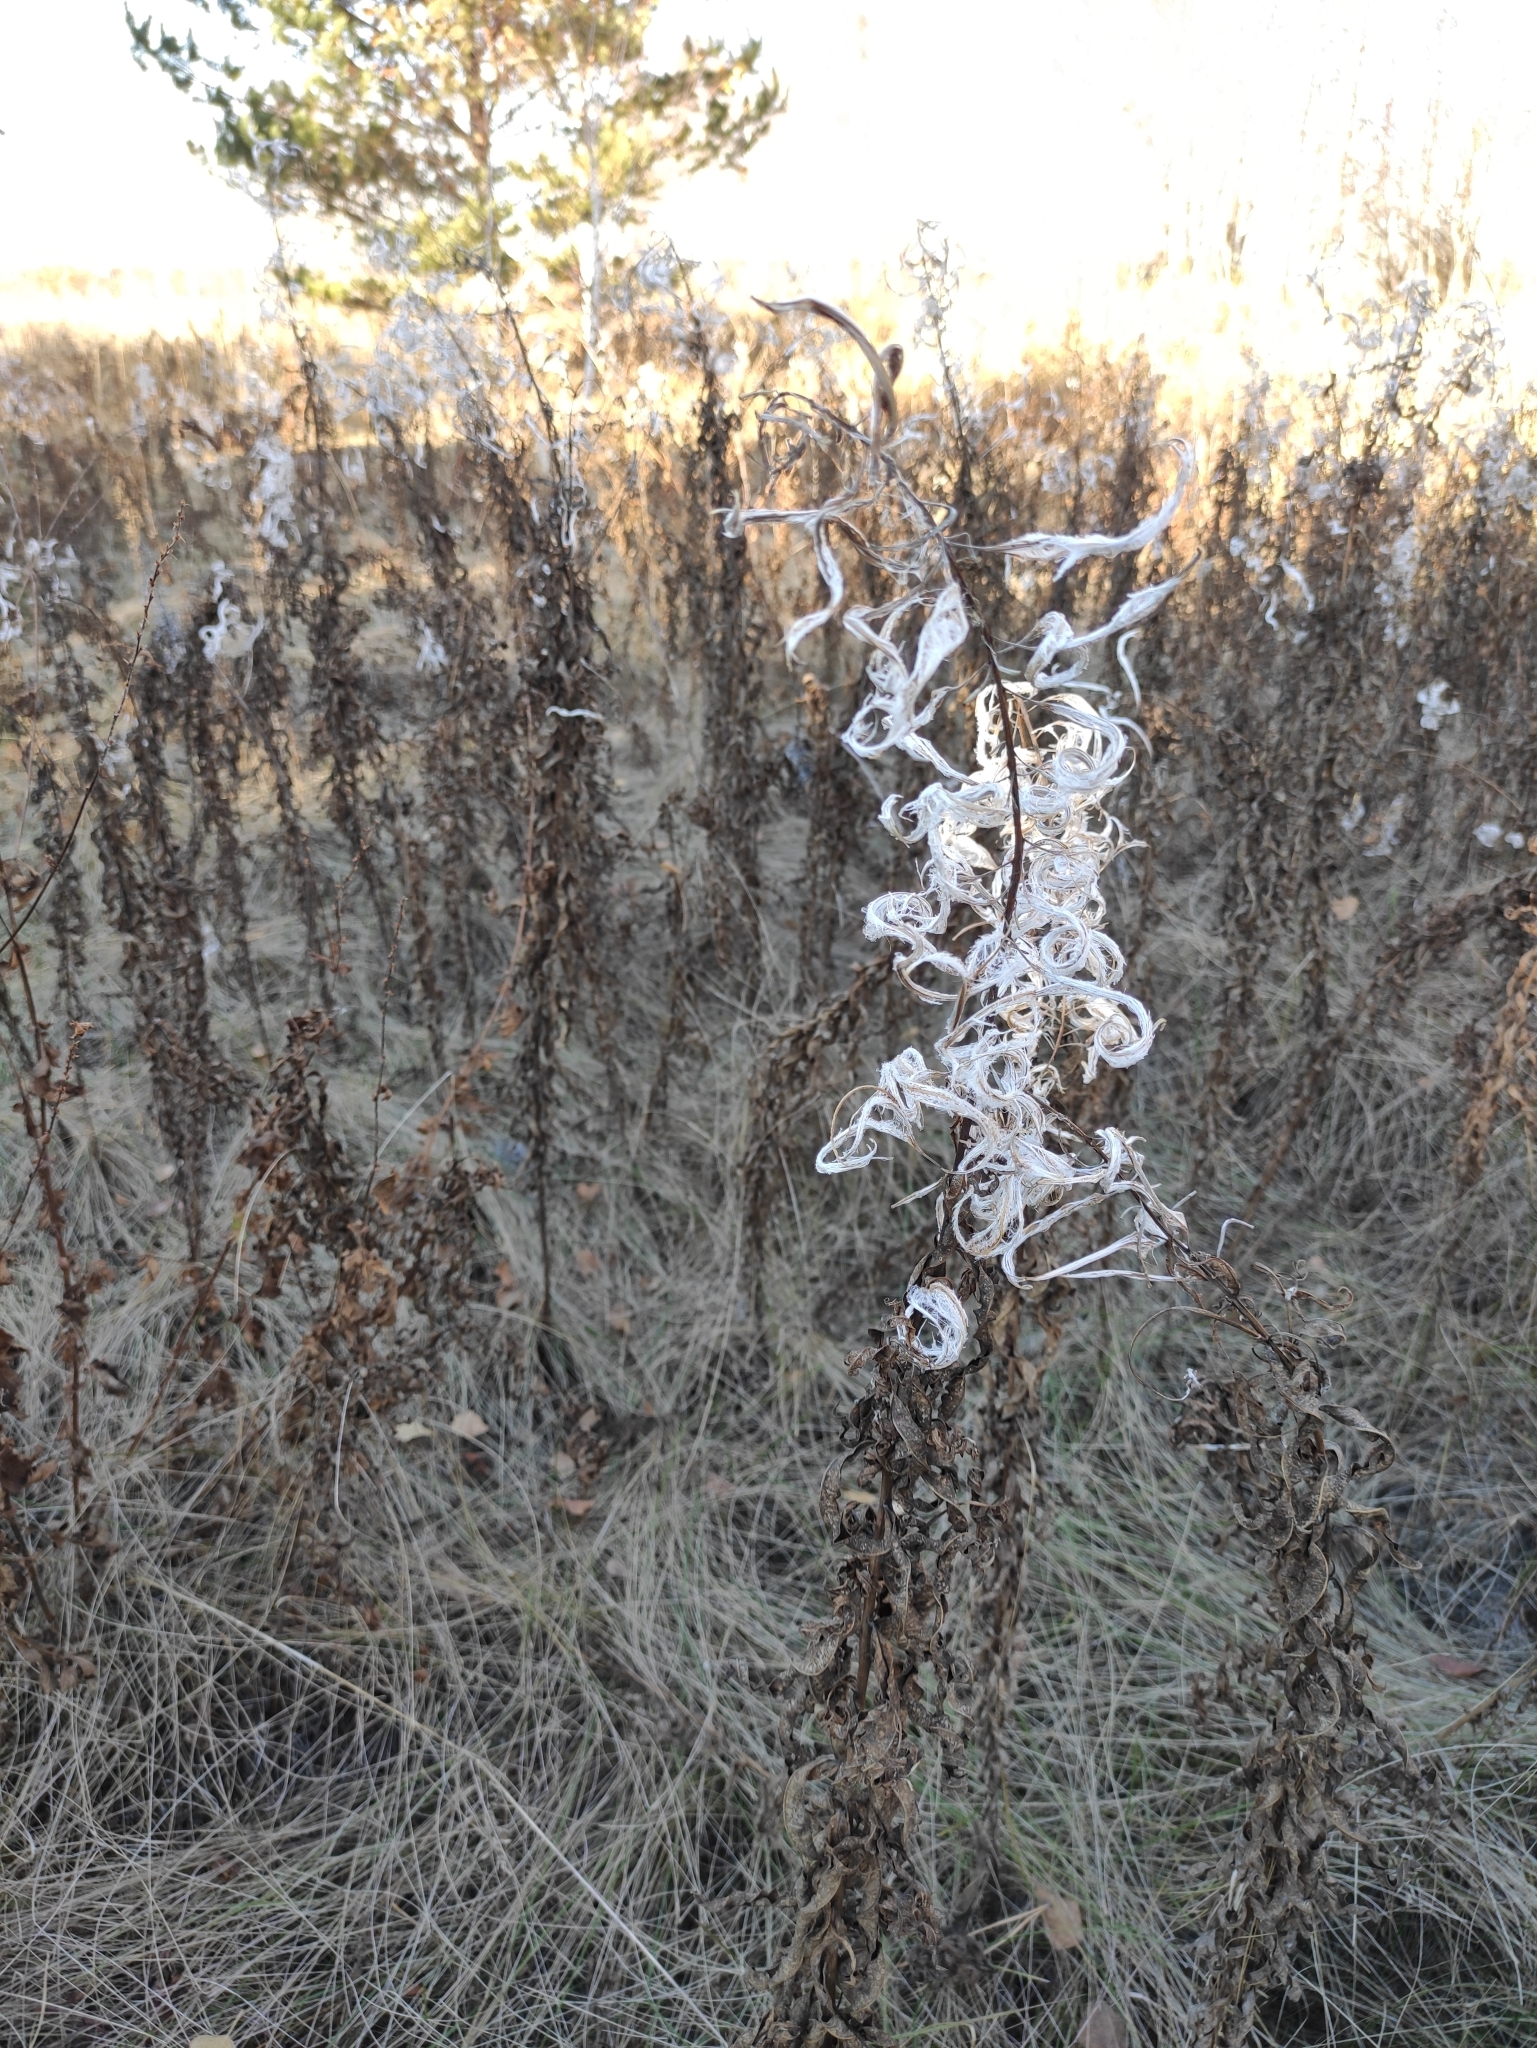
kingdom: Plantae
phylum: Tracheophyta
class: Magnoliopsida
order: Myrtales
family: Onagraceae
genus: Chamaenerion
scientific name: Chamaenerion angustifolium
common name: Fireweed
